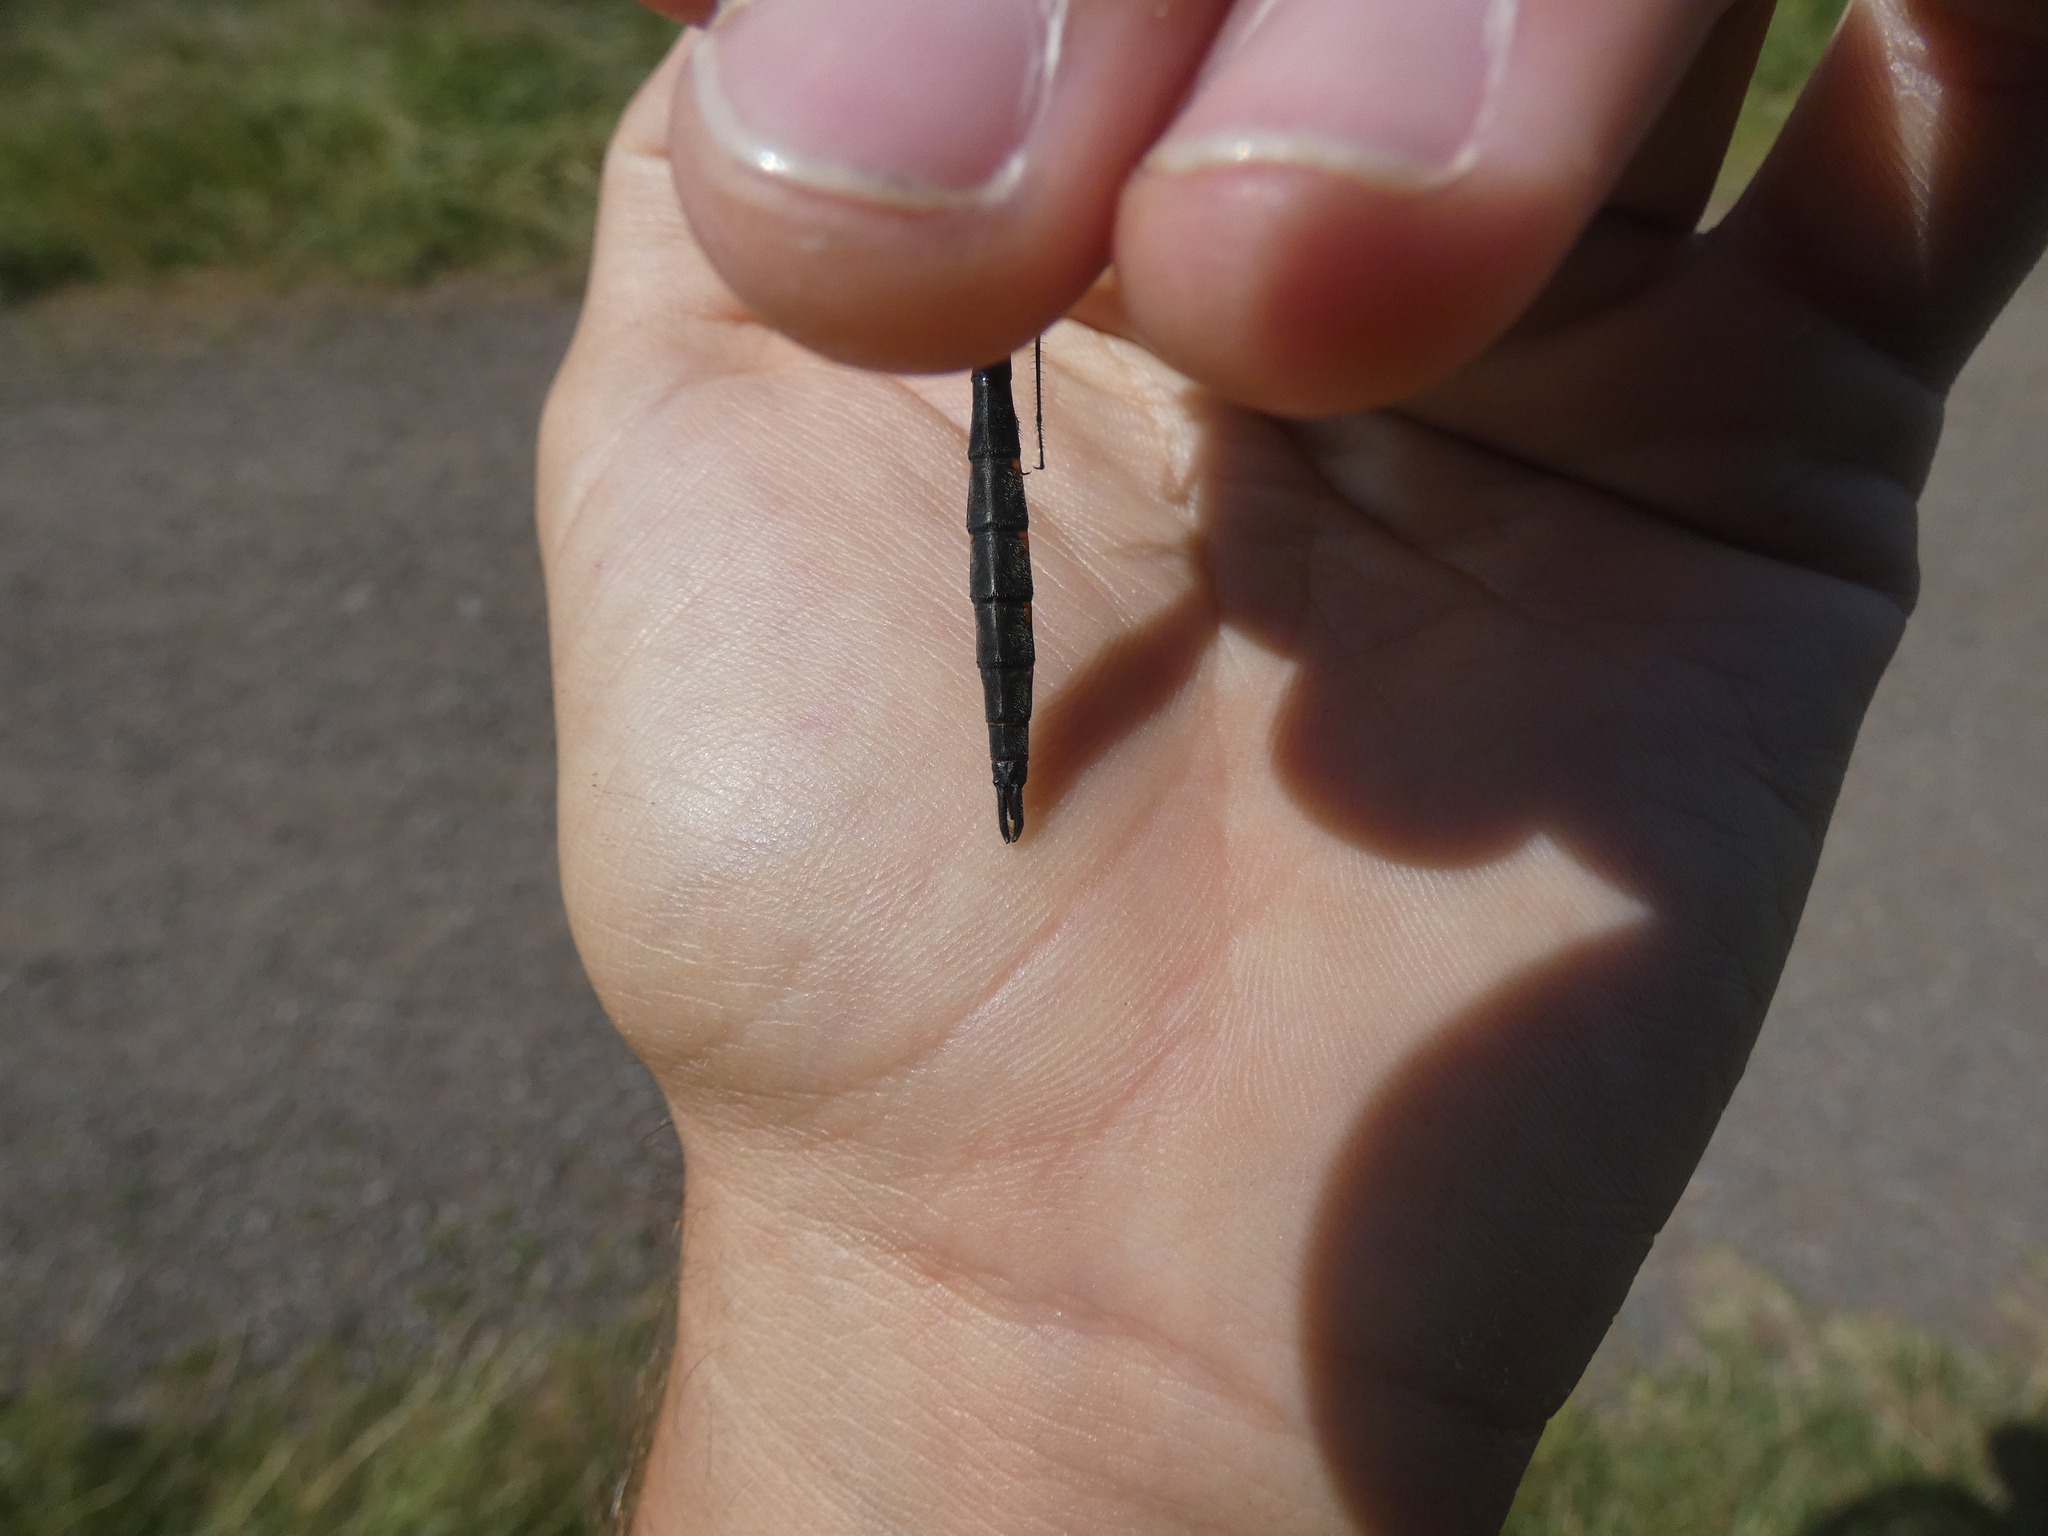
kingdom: Animalia
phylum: Arthropoda
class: Insecta
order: Odonata
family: Corduliidae
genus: Somatochlora
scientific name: Somatochlora flavomaculata
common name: Yellow-spotted emerald
